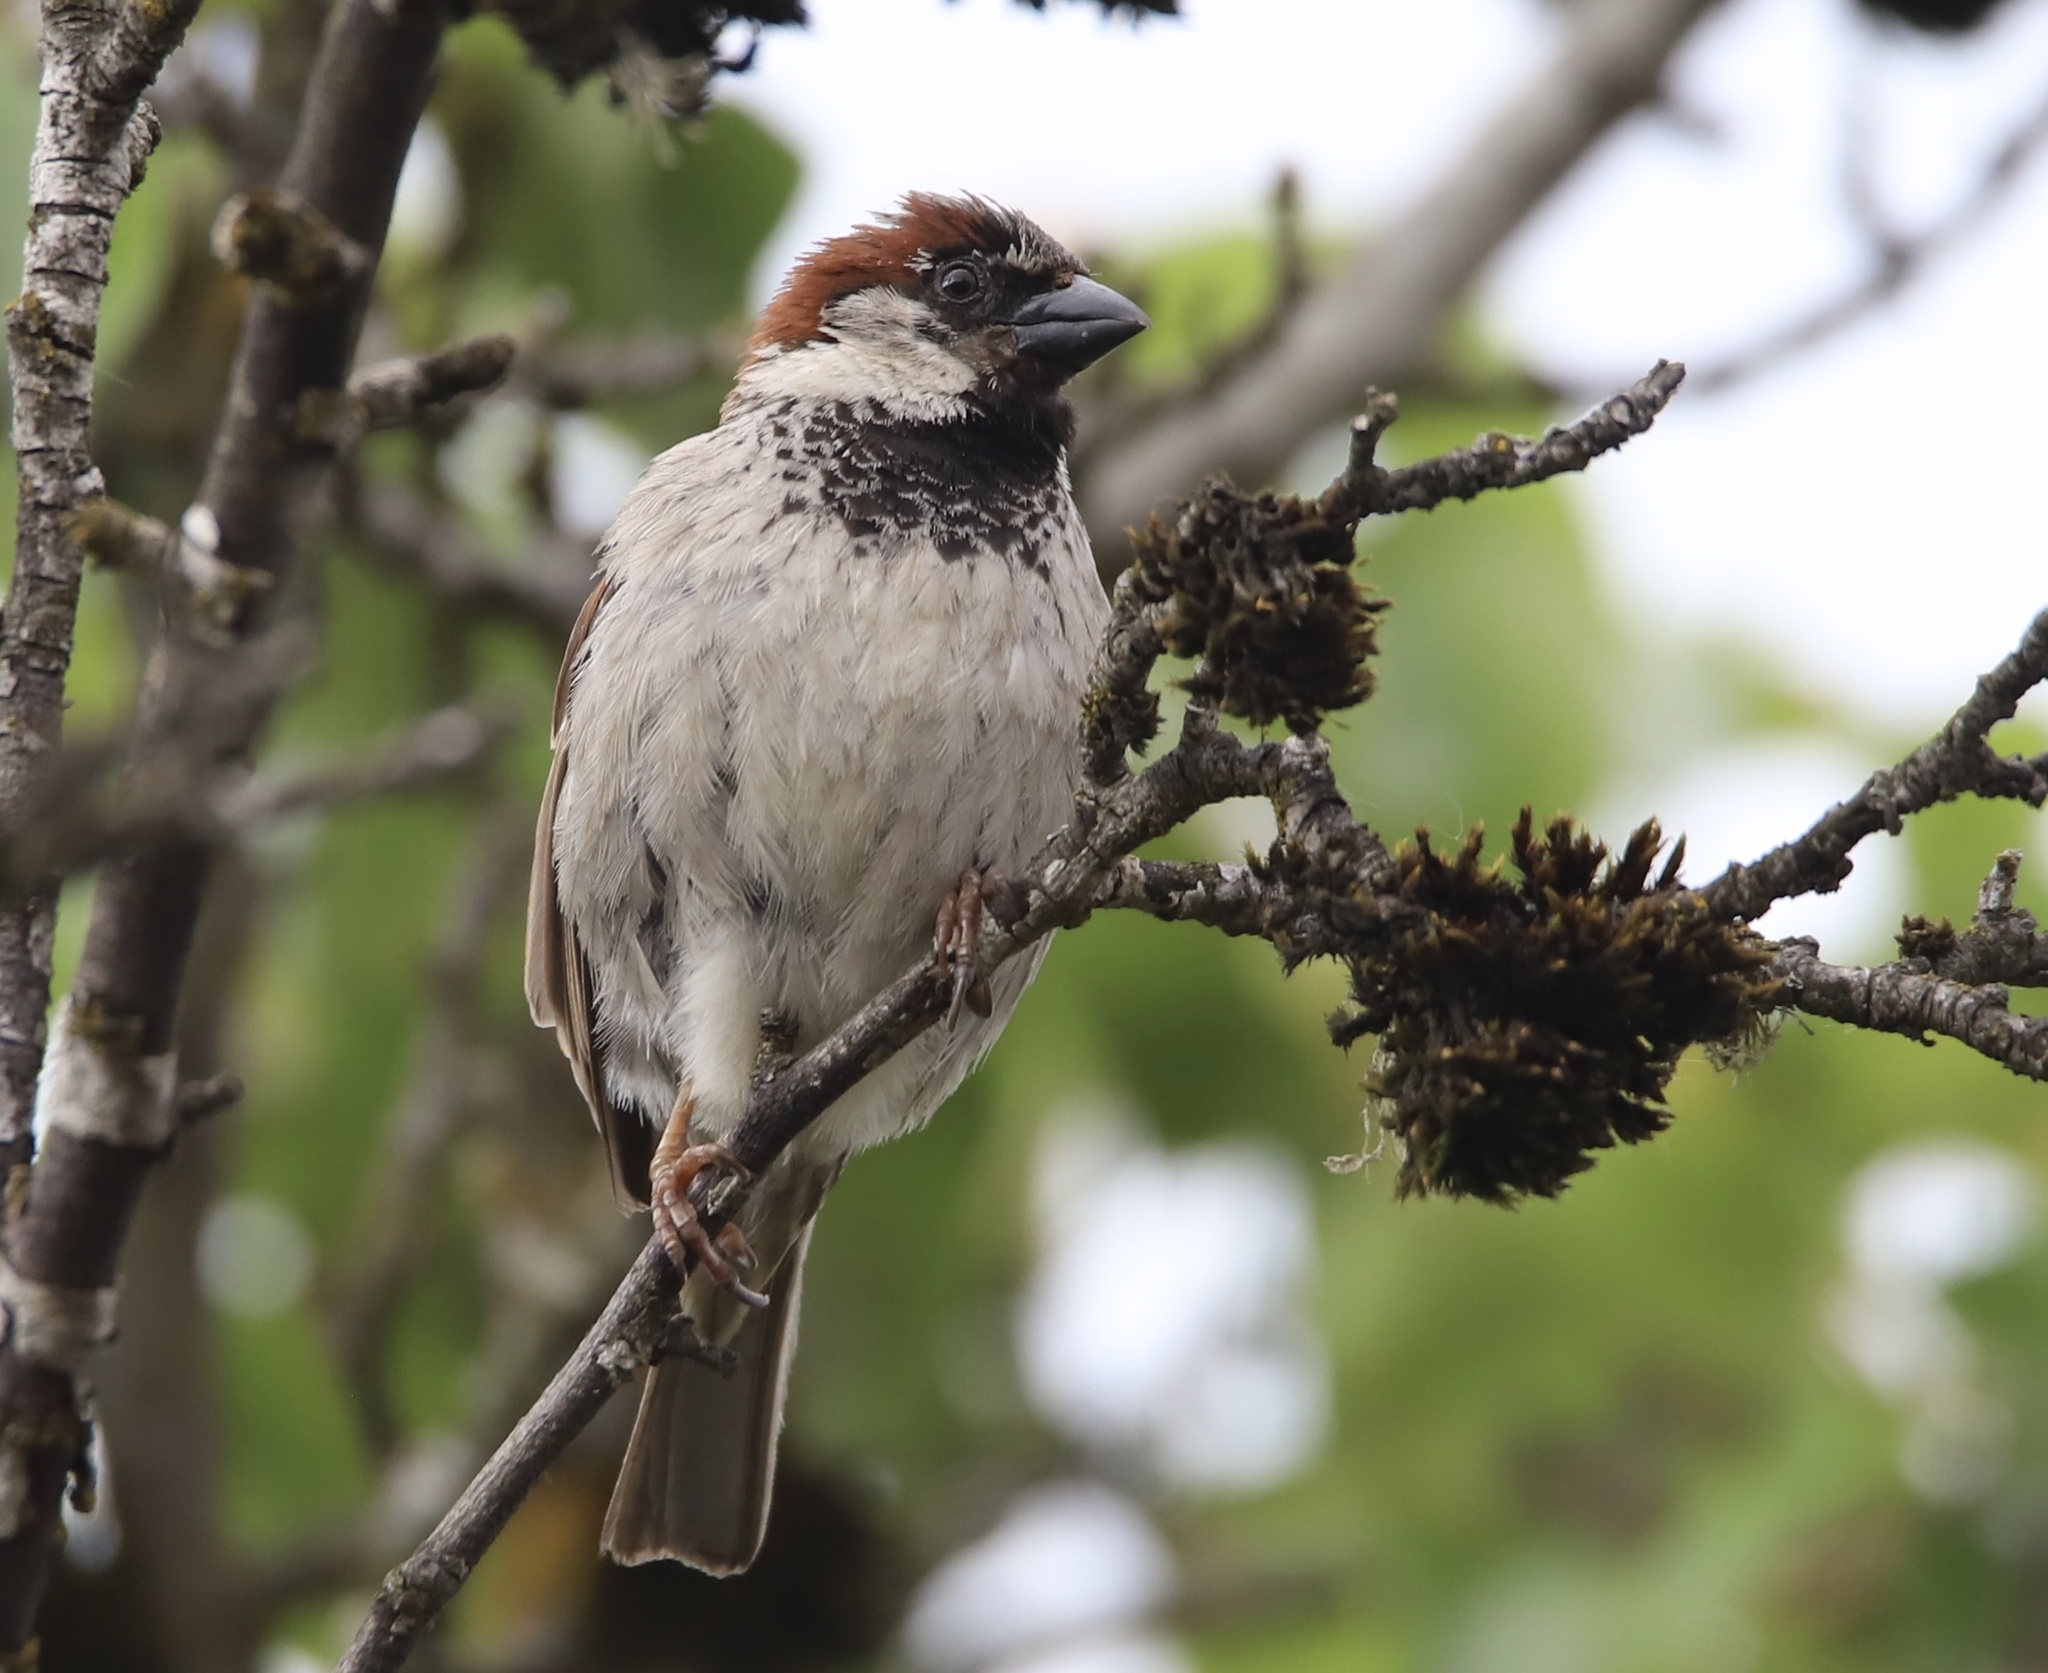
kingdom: Animalia
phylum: Chordata
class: Aves
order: Passeriformes
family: Passeridae
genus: Passer
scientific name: Passer domesticus
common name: House sparrow
